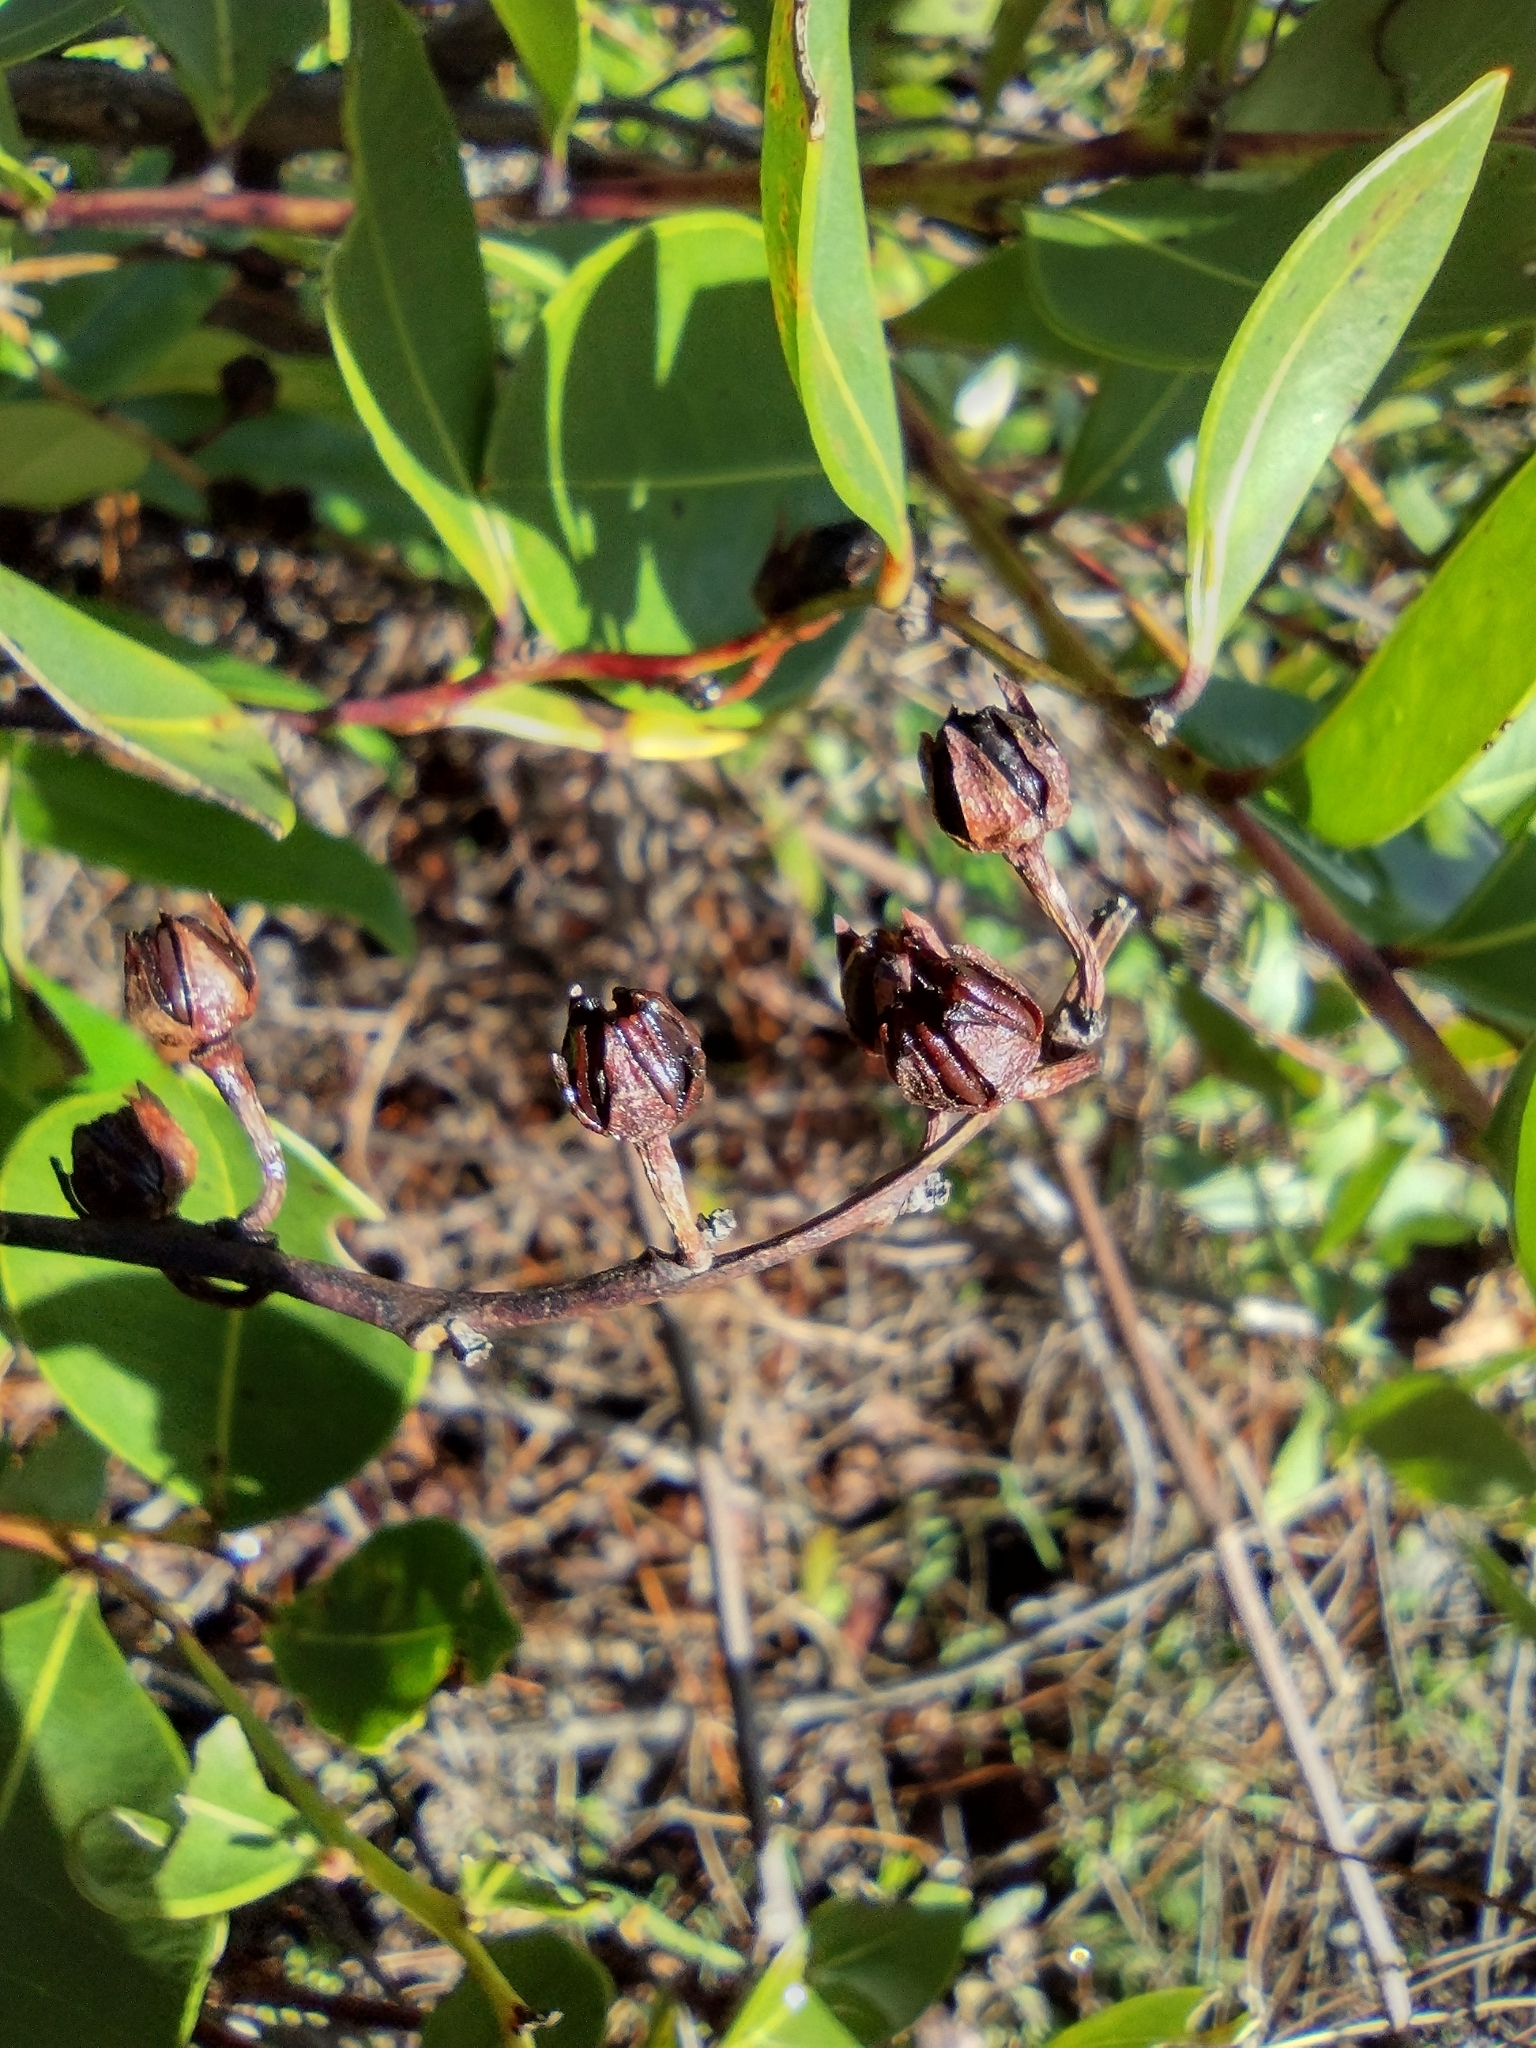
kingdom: Plantae
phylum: Tracheophyta
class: Magnoliopsida
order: Ericales
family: Ericaceae
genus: Lyonia
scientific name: Lyonia lucida
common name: Fetterbush
